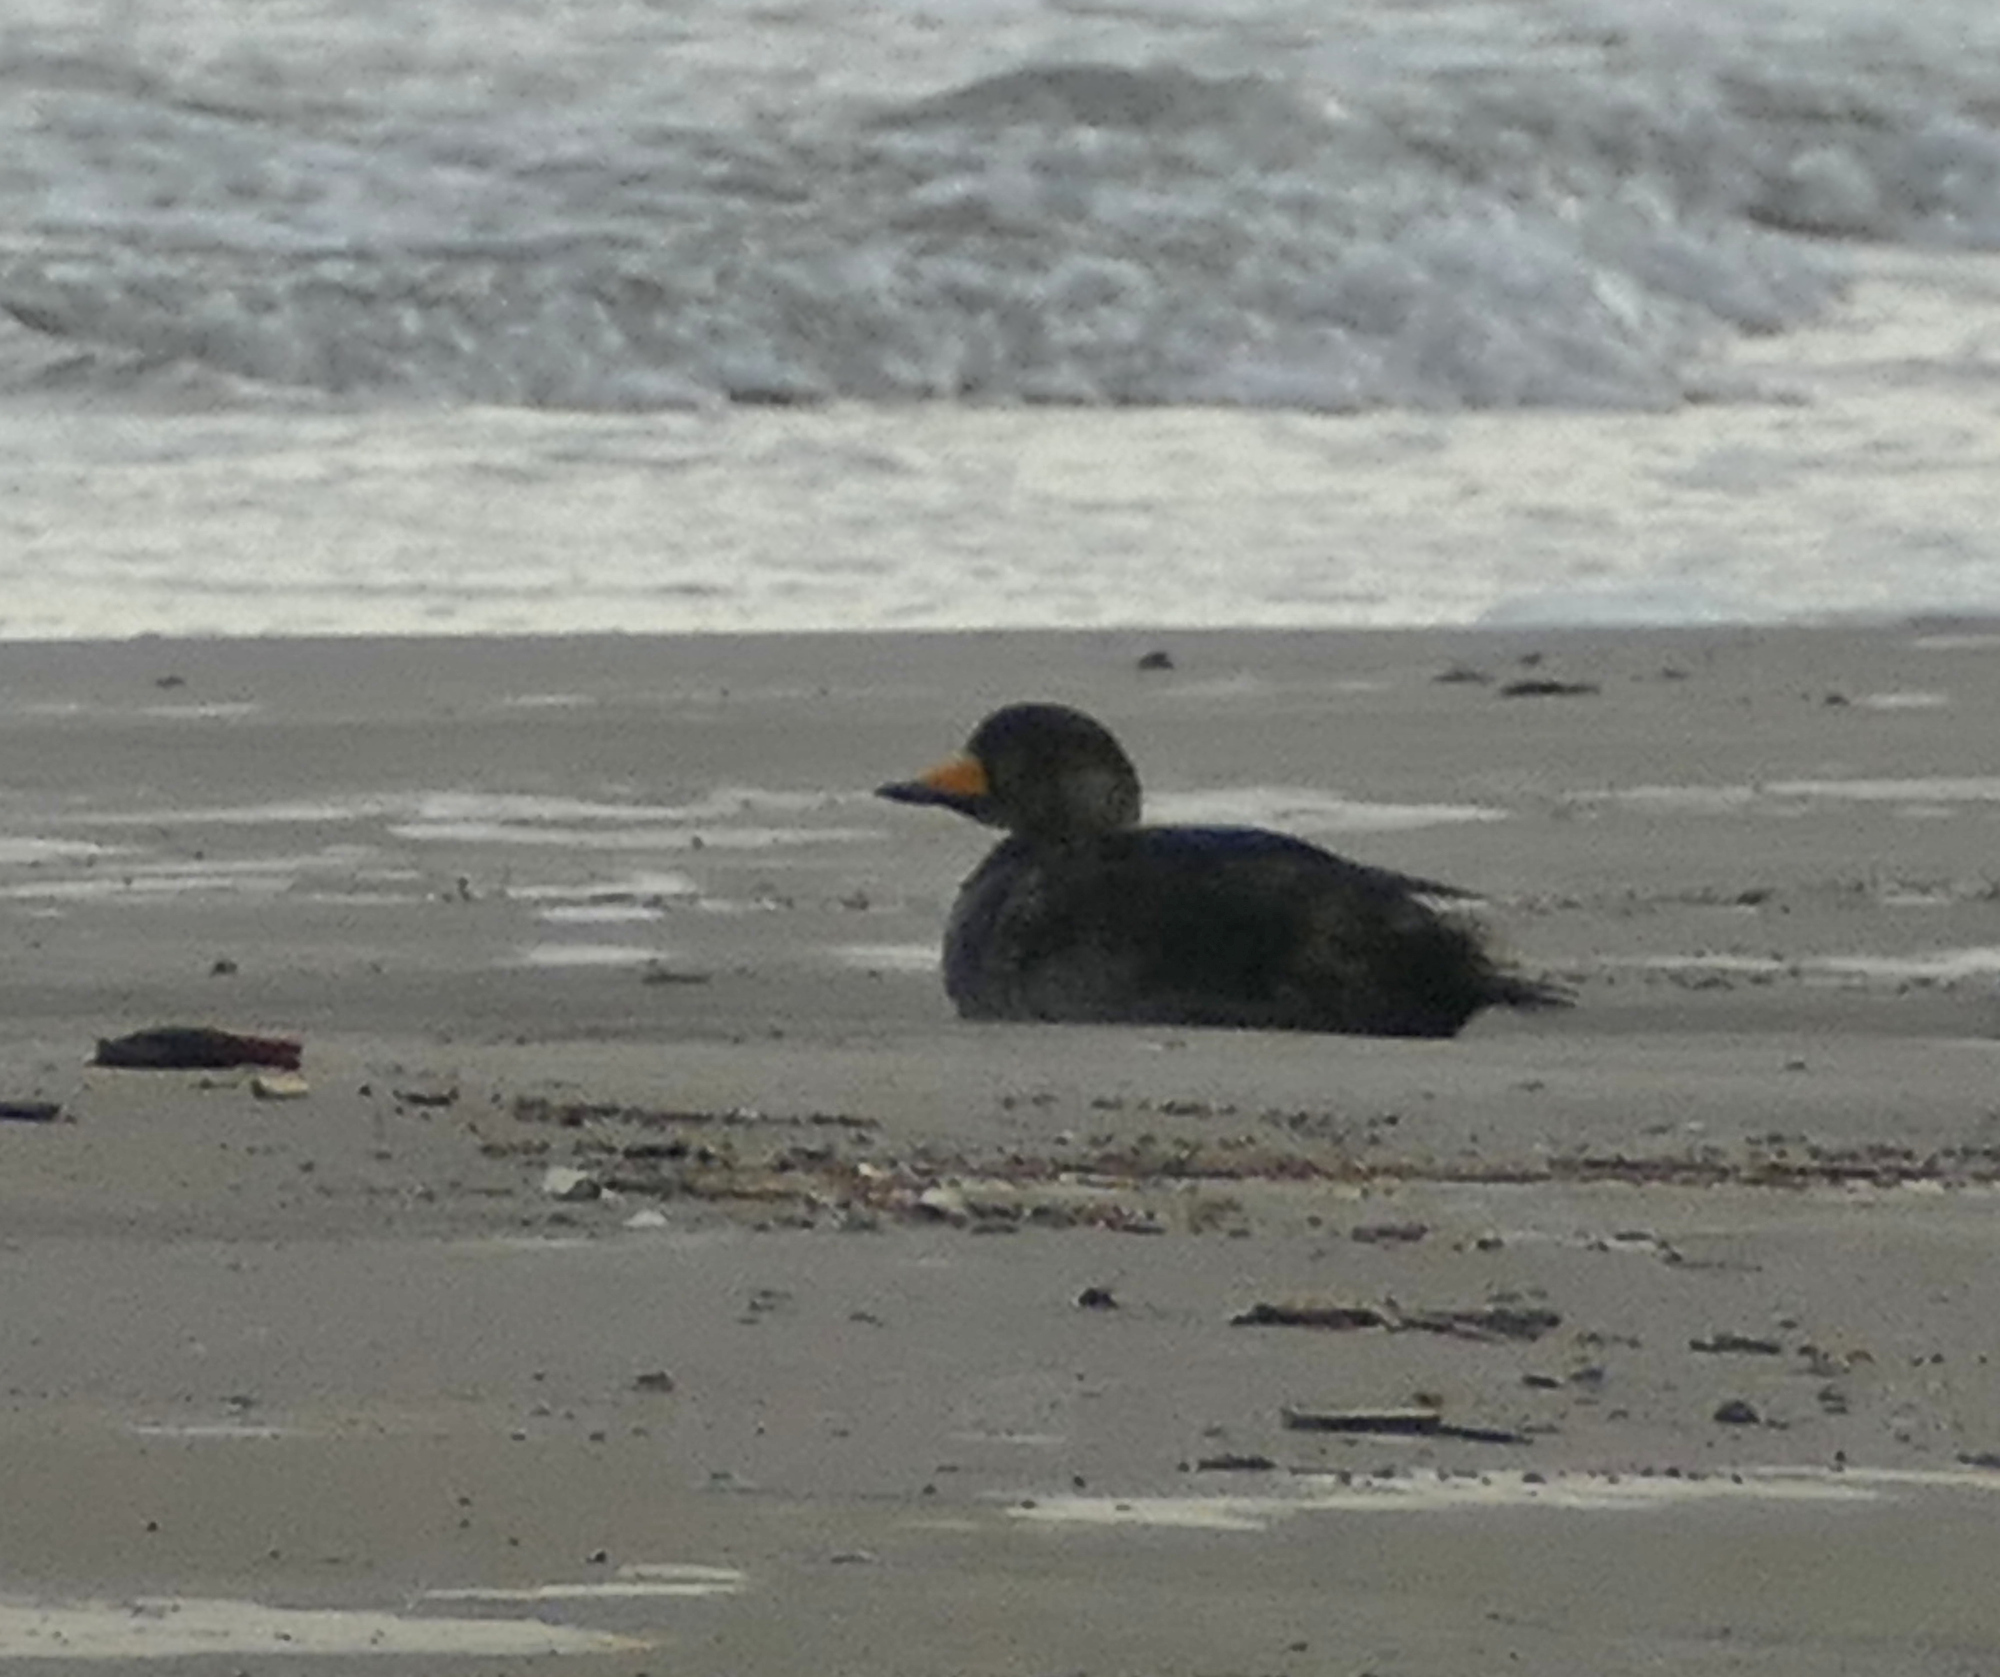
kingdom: Animalia
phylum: Chordata
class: Aves
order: Anseriformes
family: Anatidae
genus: Melanitta
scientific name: Melanitta americana
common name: Black scoter
